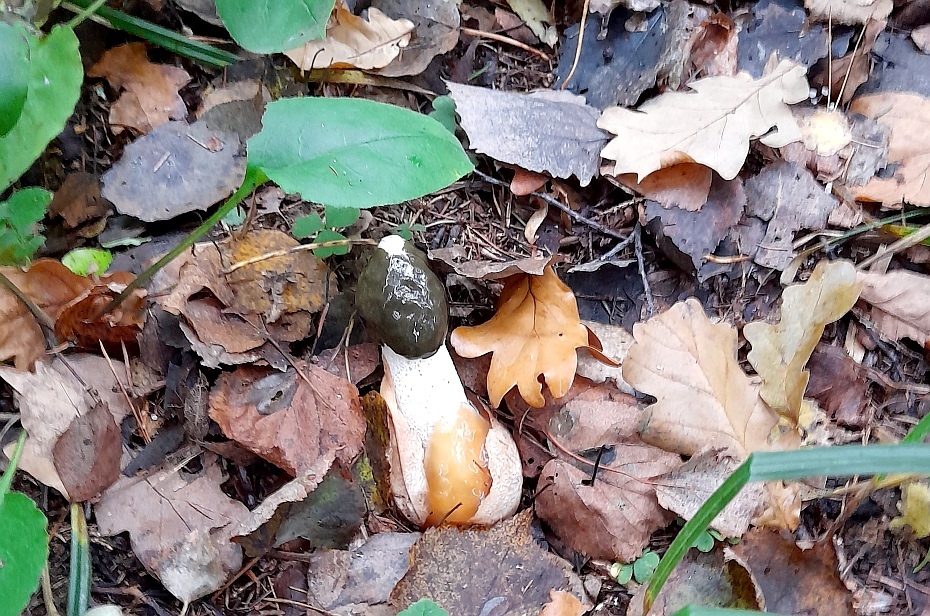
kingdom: Fungi
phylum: Basidiomycota
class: Agaricomycetes
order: Phallales
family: Phallaceae
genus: Phallus
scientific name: Phallus impudicus
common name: Common stinkhorn
